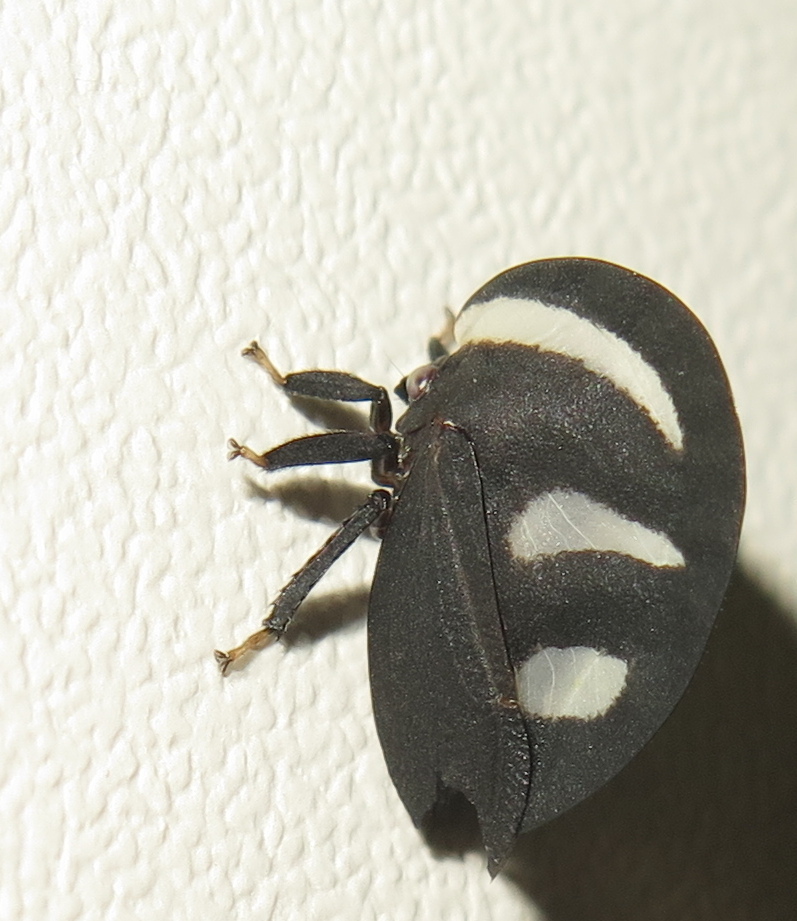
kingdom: Animalia
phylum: Arthropoda
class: Insecta
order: Hemiptera
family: Membracidae
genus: Membracis
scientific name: Membracis
